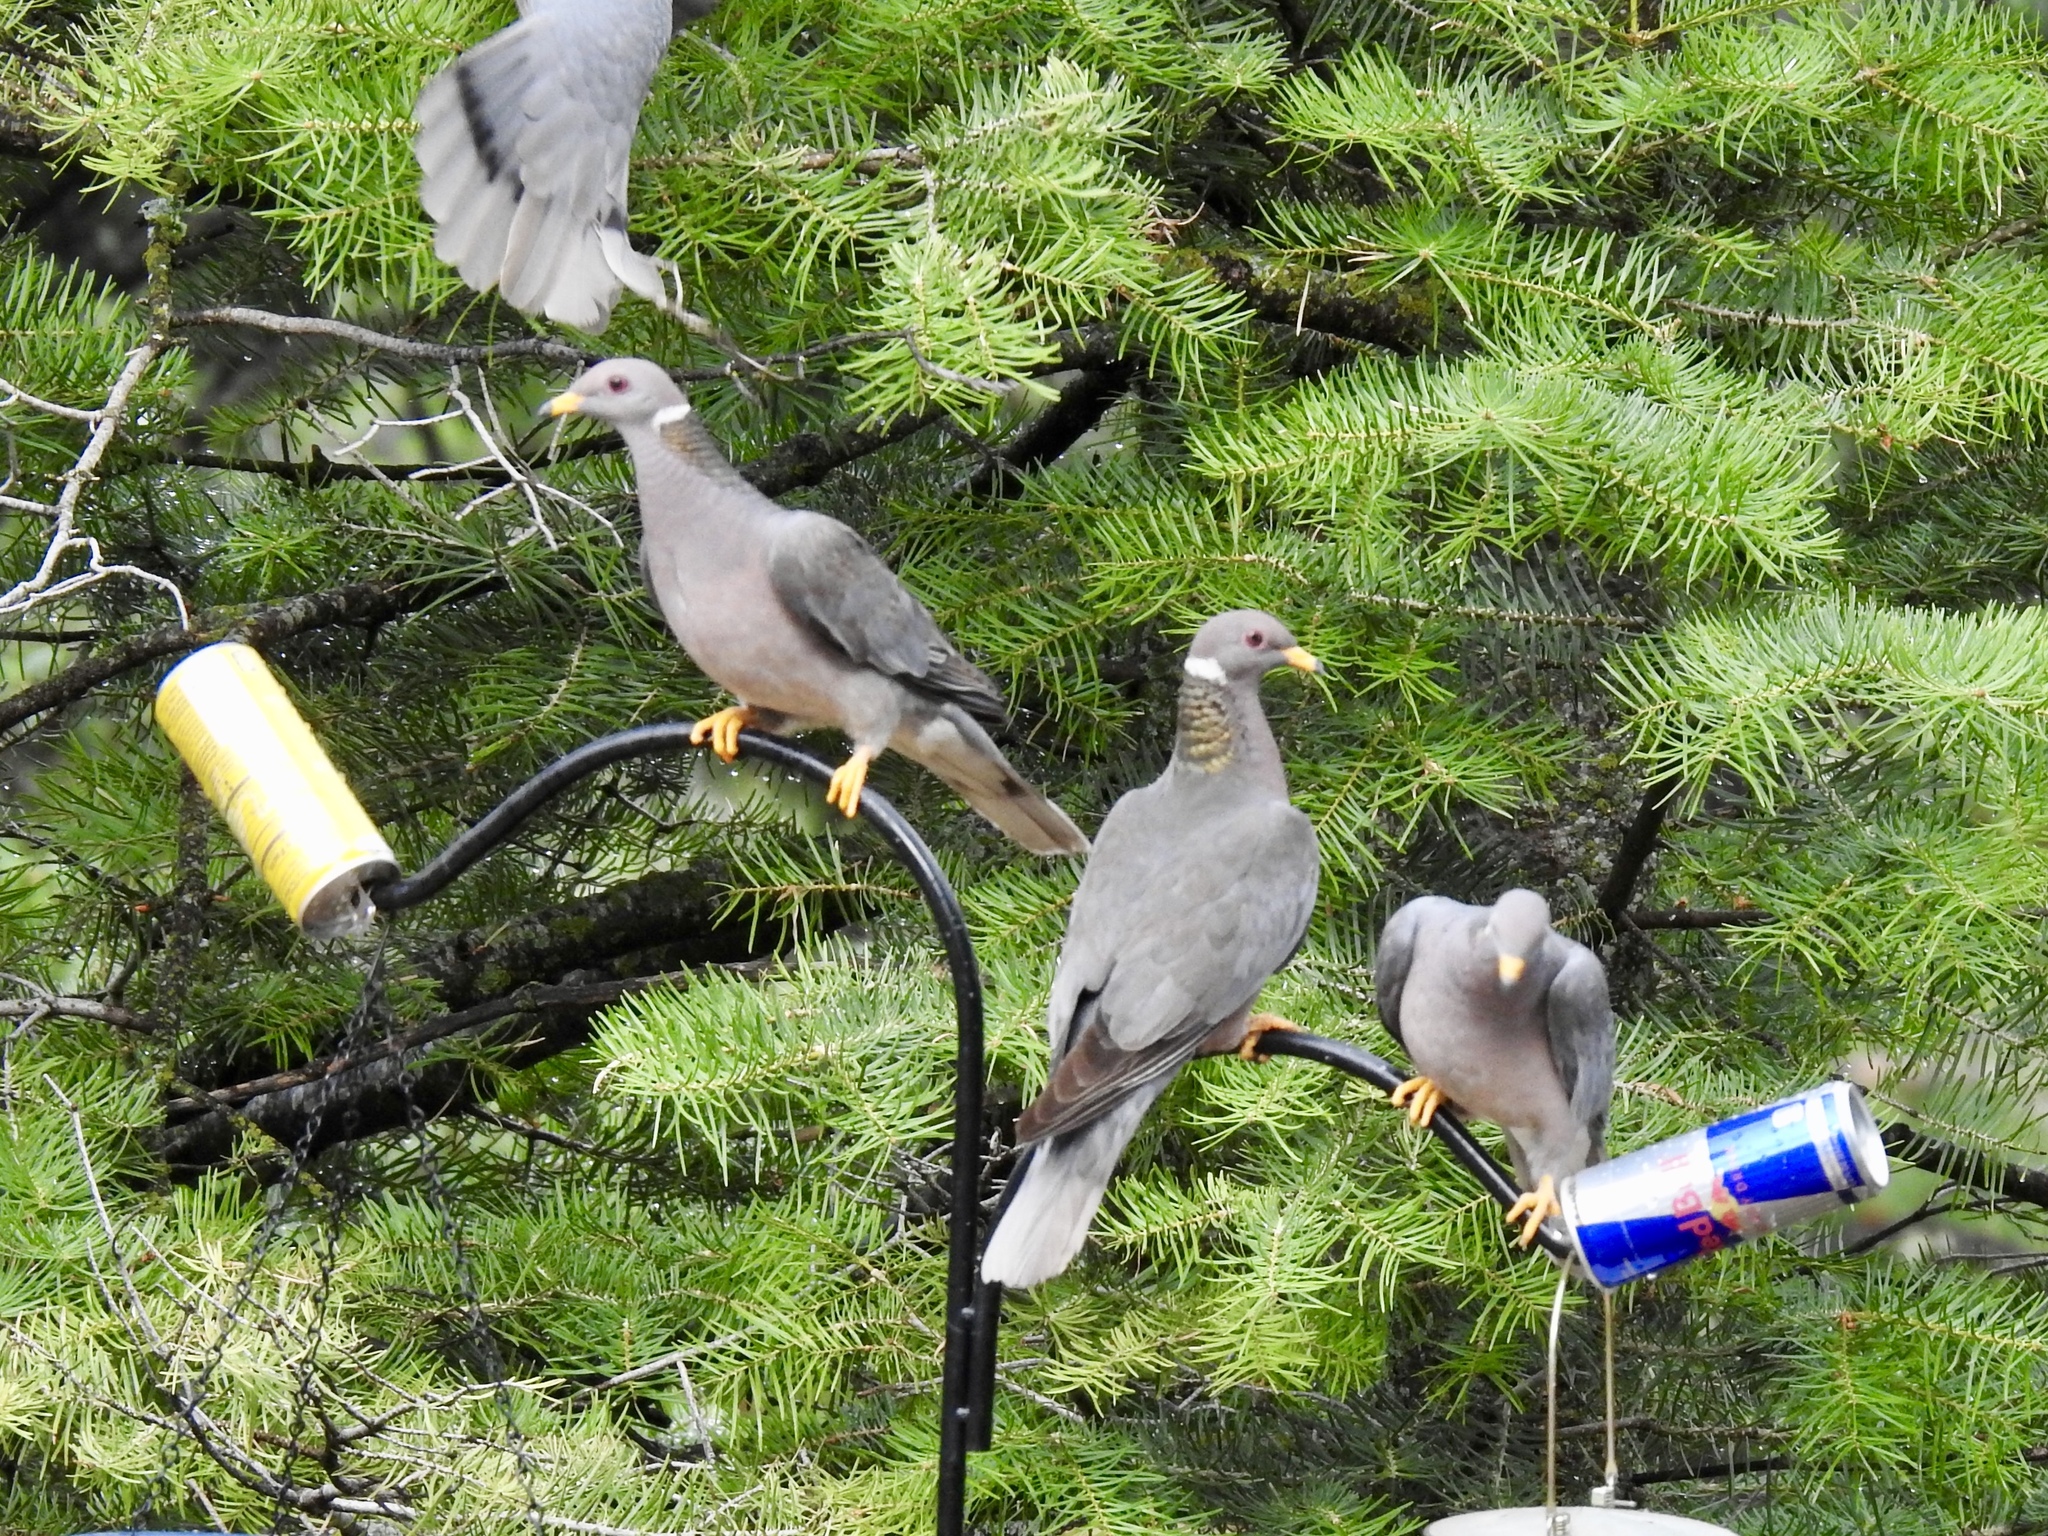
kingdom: Animalia
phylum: Chordata
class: Aves
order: Columbiformes
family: Columbidae
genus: Patagioenas
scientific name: Patagioenas fasciata
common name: Band-tailed pigeon
